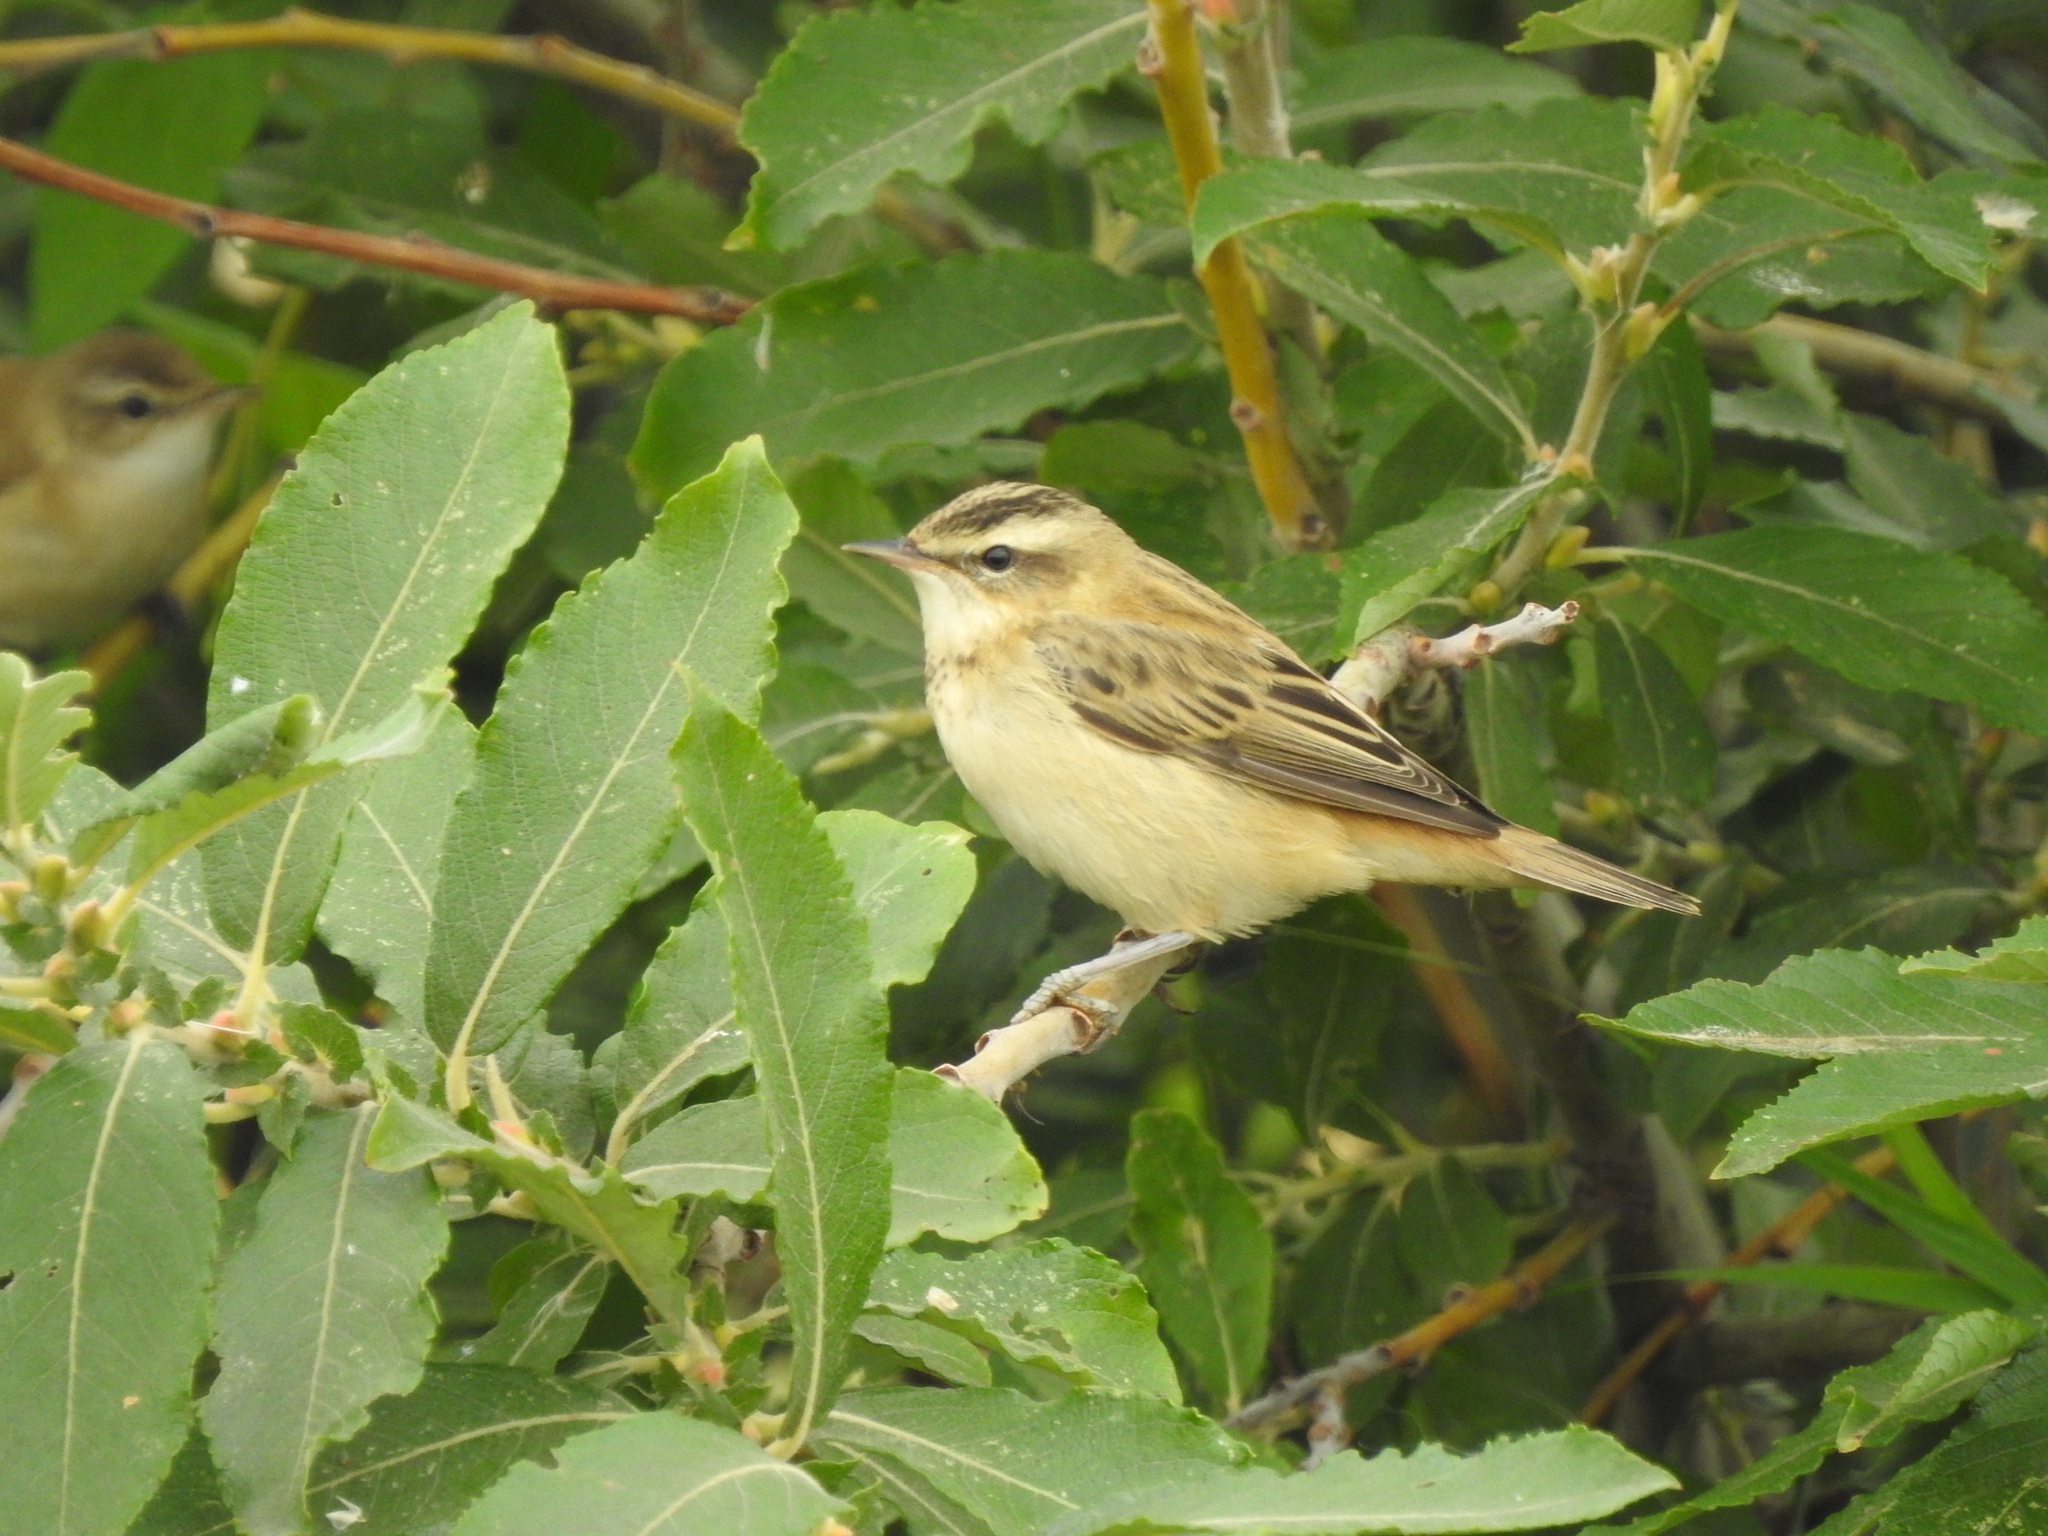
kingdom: Animalia
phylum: Chordata
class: Aves
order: Passeriformes
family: Acrocephalidae
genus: Acrocephalus
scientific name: Acrocephalus schoenobaenus
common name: Sedge warbler
